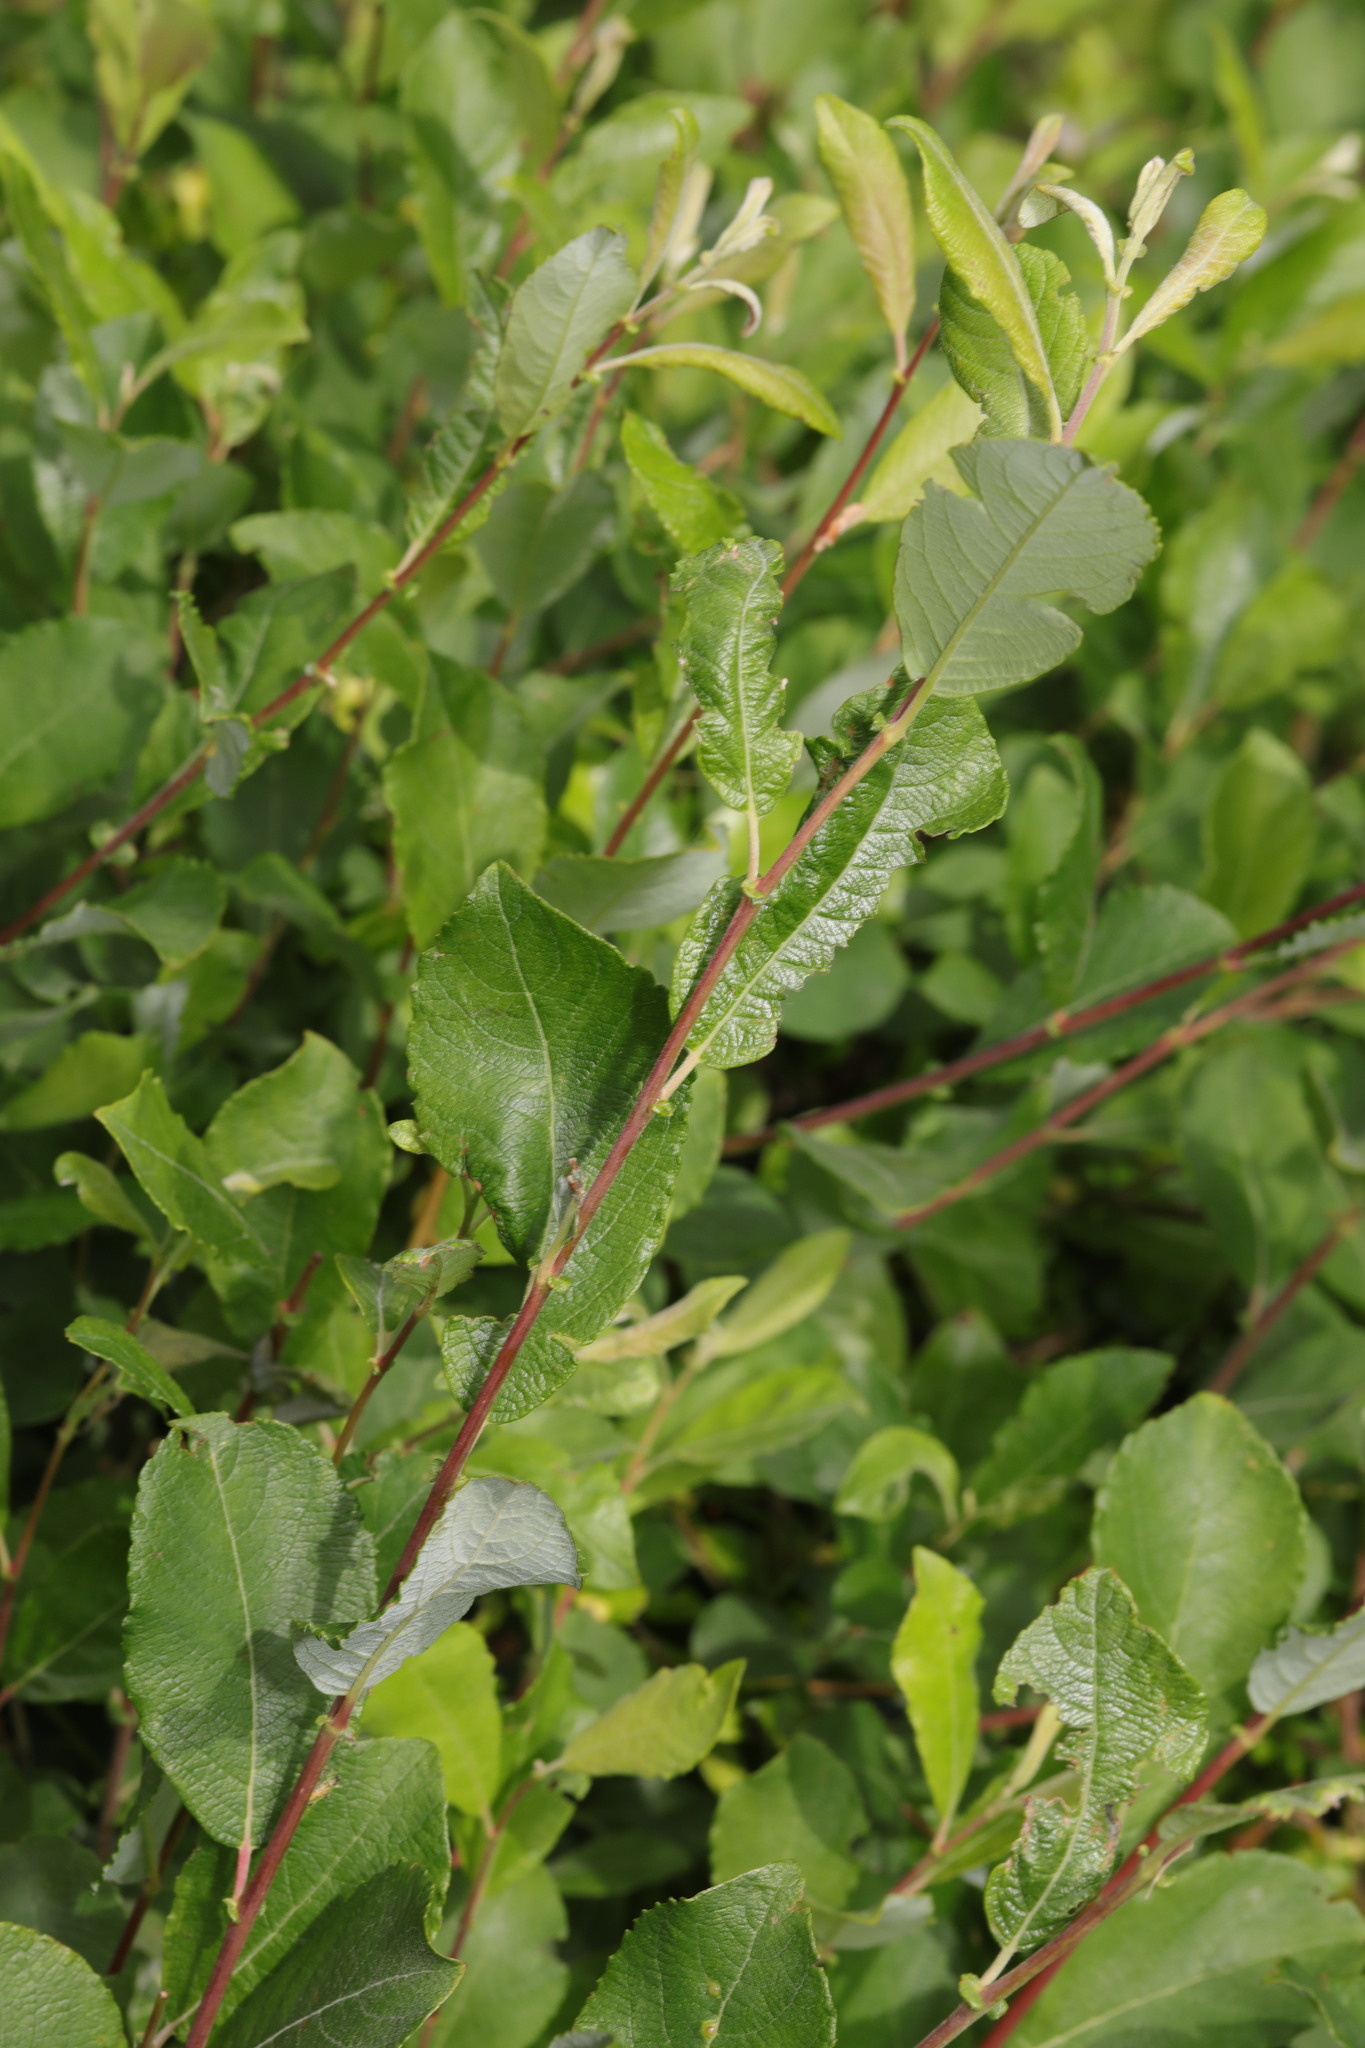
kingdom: Plantae
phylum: Tracheophyta
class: Magnoliopsida
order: Malpighiales
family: Salicaceae
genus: Salix
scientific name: Salix cinerea
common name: Common sallow
